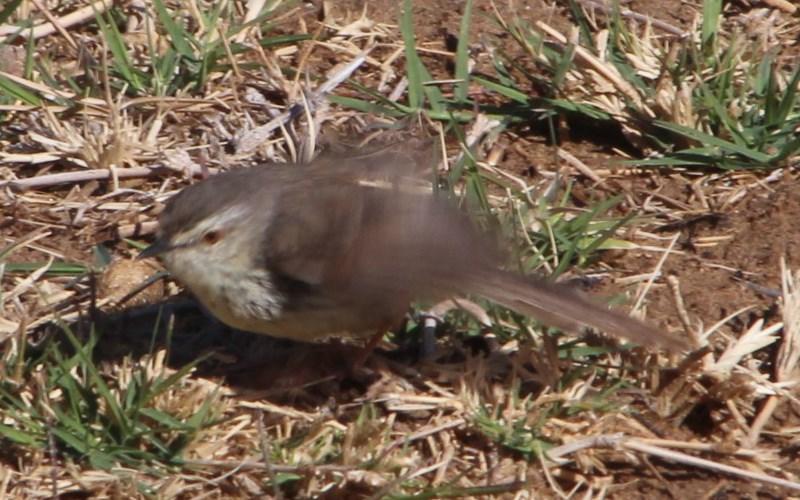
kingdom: Animalia
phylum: Chordata
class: Aves
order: Passeriformes
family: Cisticolidae
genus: Prinia
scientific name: Prinia maculosa
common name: Karoo prinia
